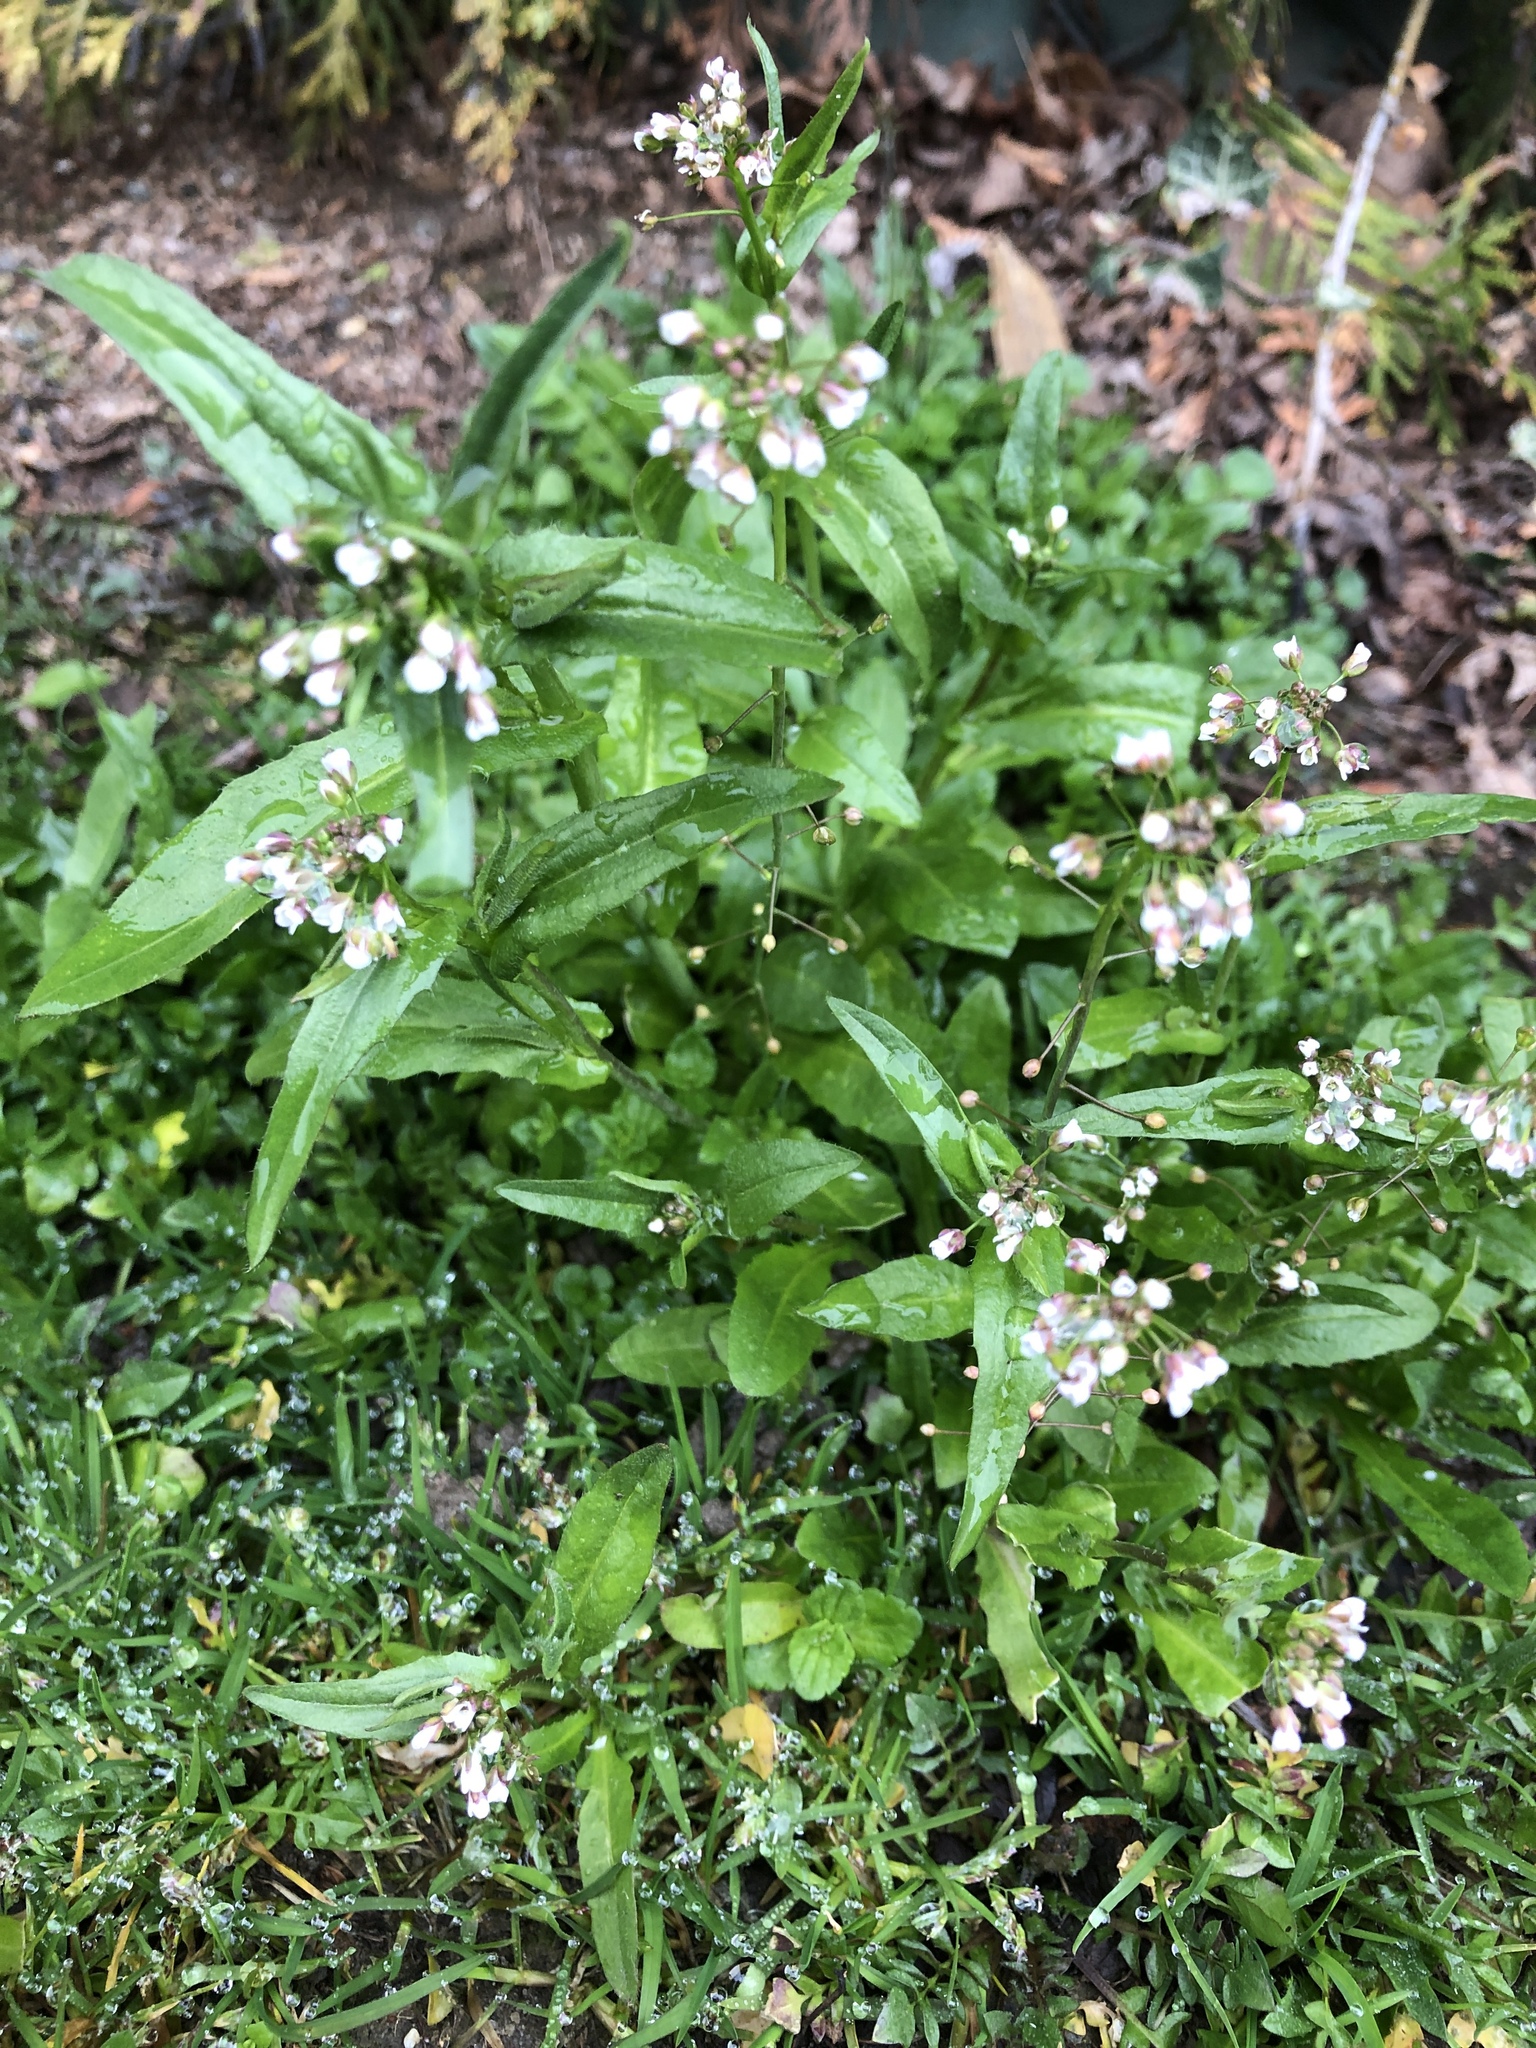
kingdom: Plantae
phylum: Tracheophyta
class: Magnoliopsida
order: Brassicales
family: Brassicaceae
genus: Capsella
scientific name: Capsella bursa-pastoris
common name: Shepherd's purse
